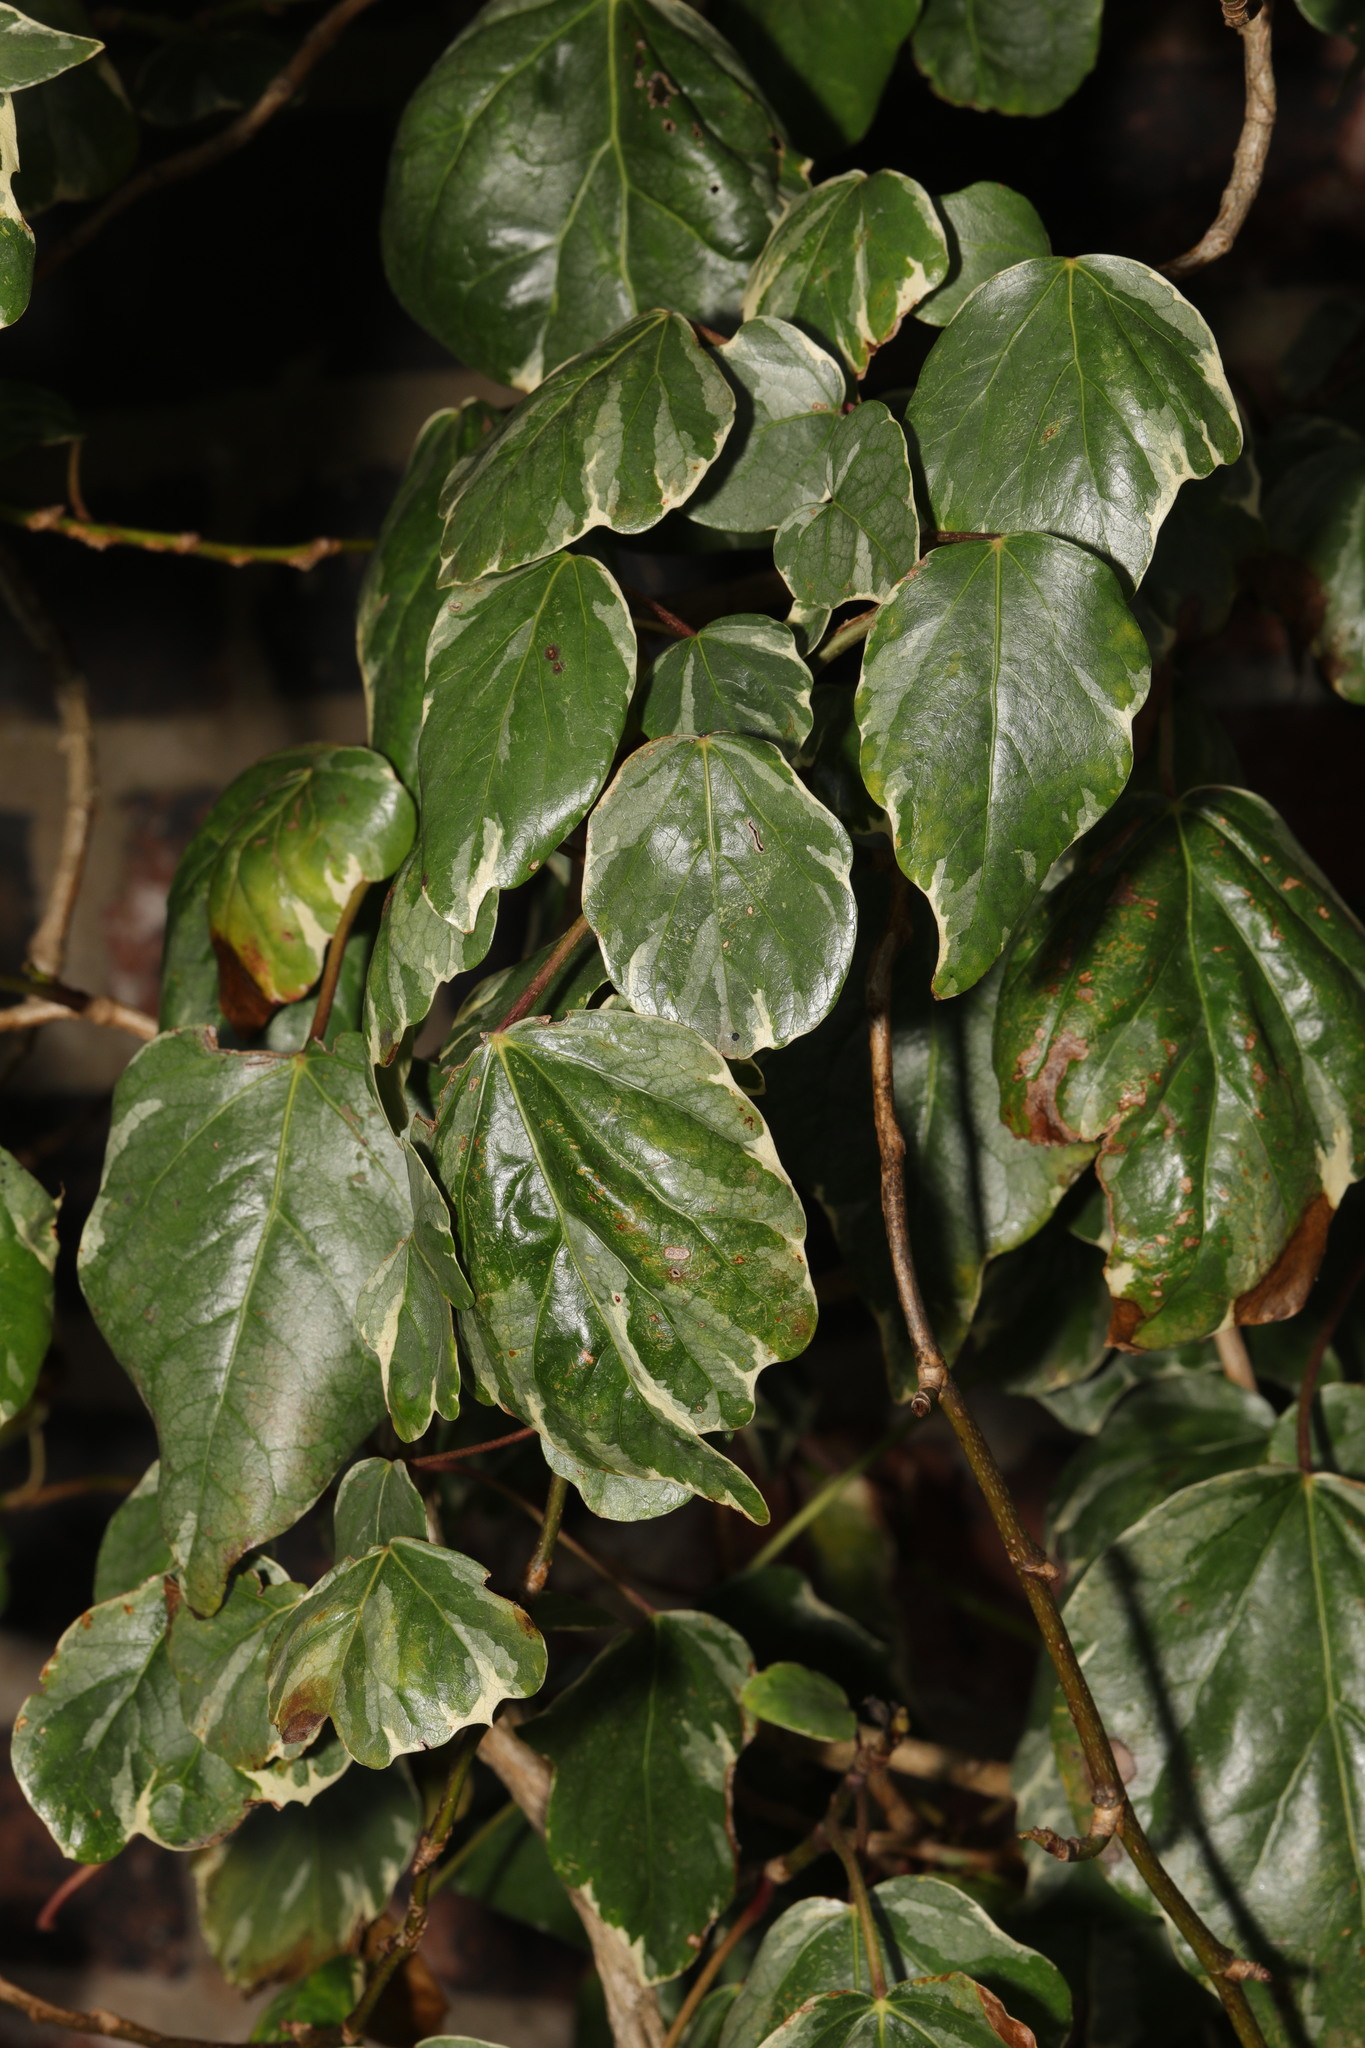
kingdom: Plantae
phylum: Tracheophyta
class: Magnoliopsida
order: Apiales
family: Araliaceae
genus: Hedera
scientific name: Hedera colchica
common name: Persian ivy
